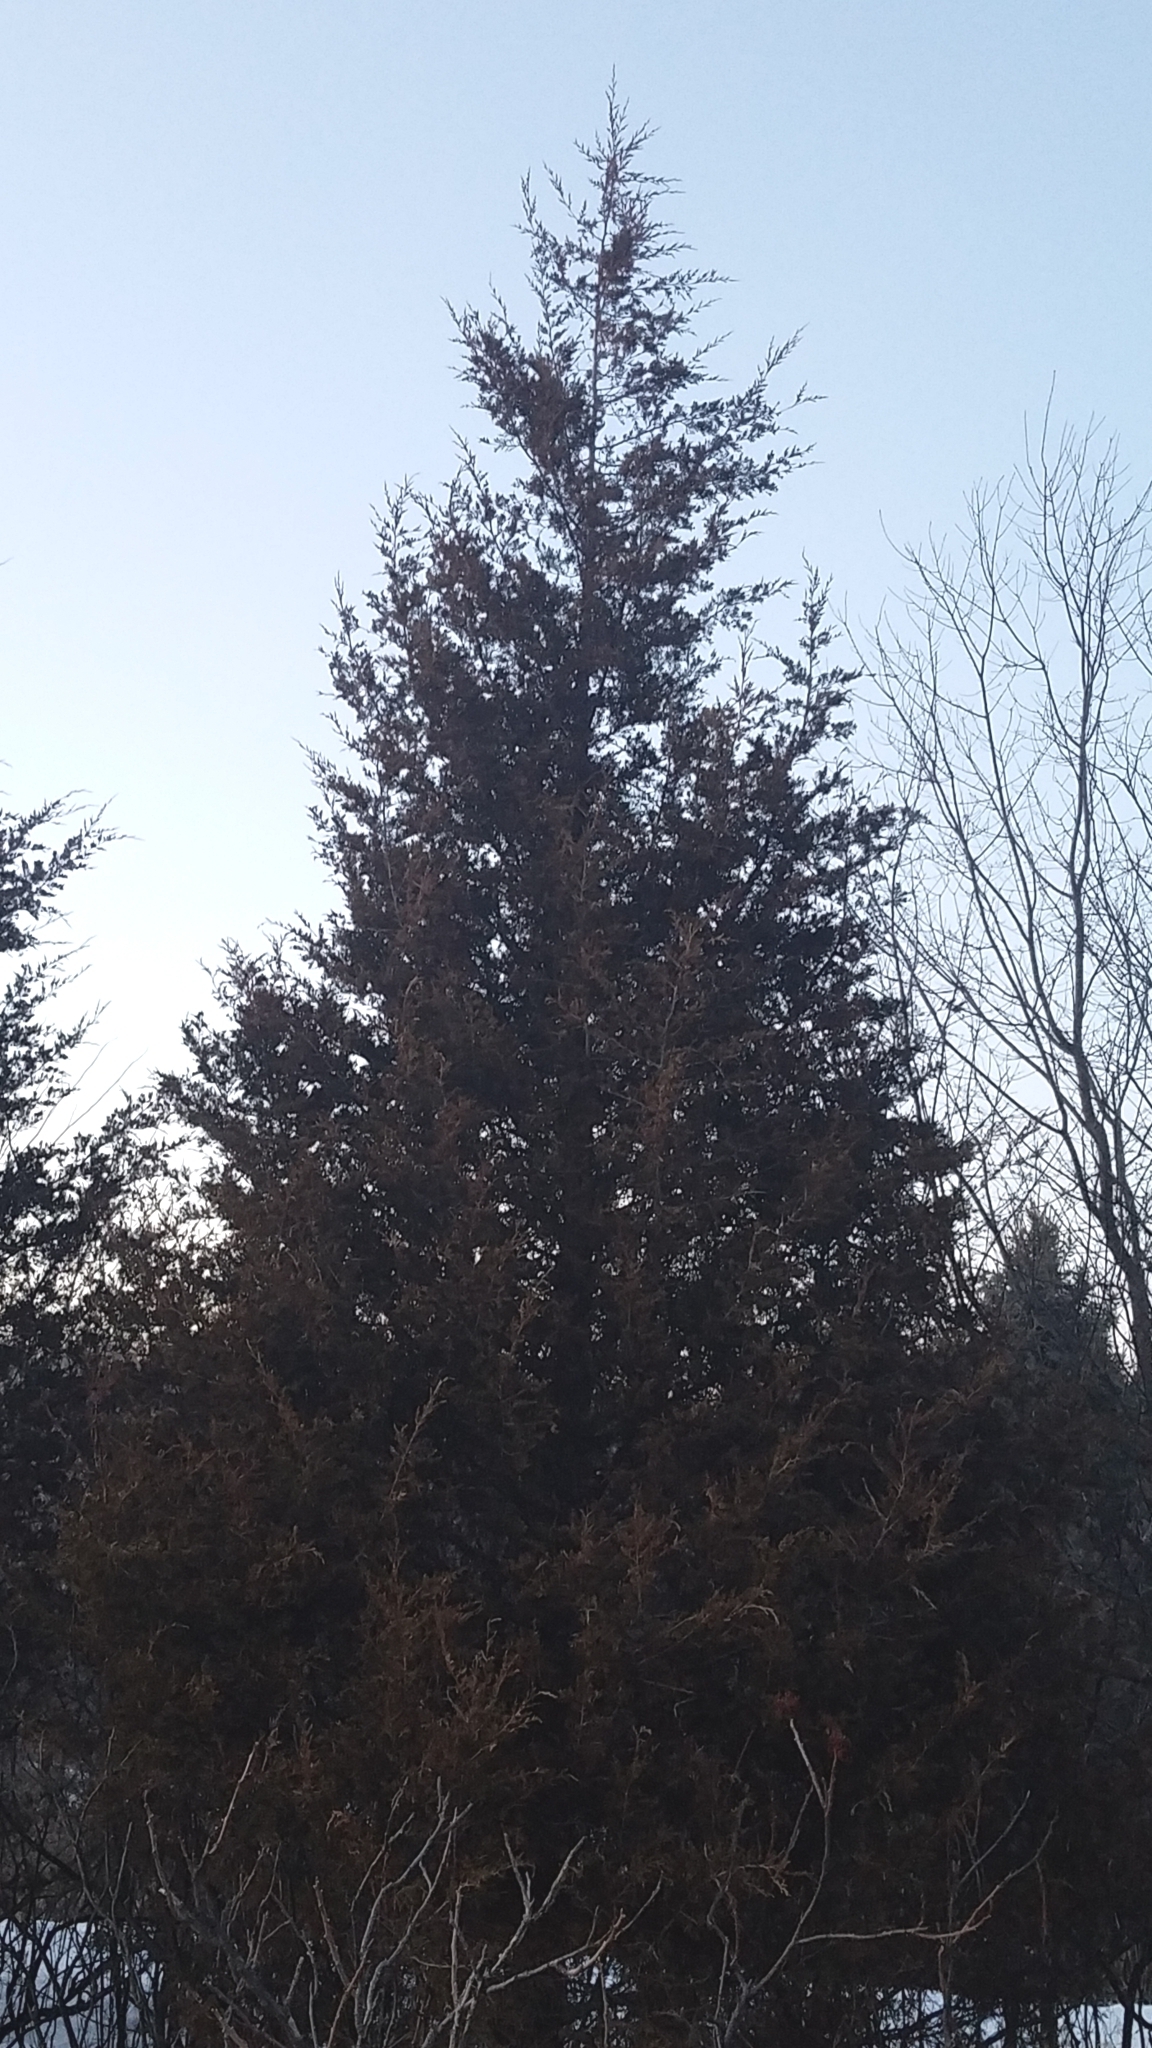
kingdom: Plantae
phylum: Tracheophyta
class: Pinopsida
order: Pinales
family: Cupressaceae
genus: Juniperus
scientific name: Juniperus virginiana
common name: Red juniper
